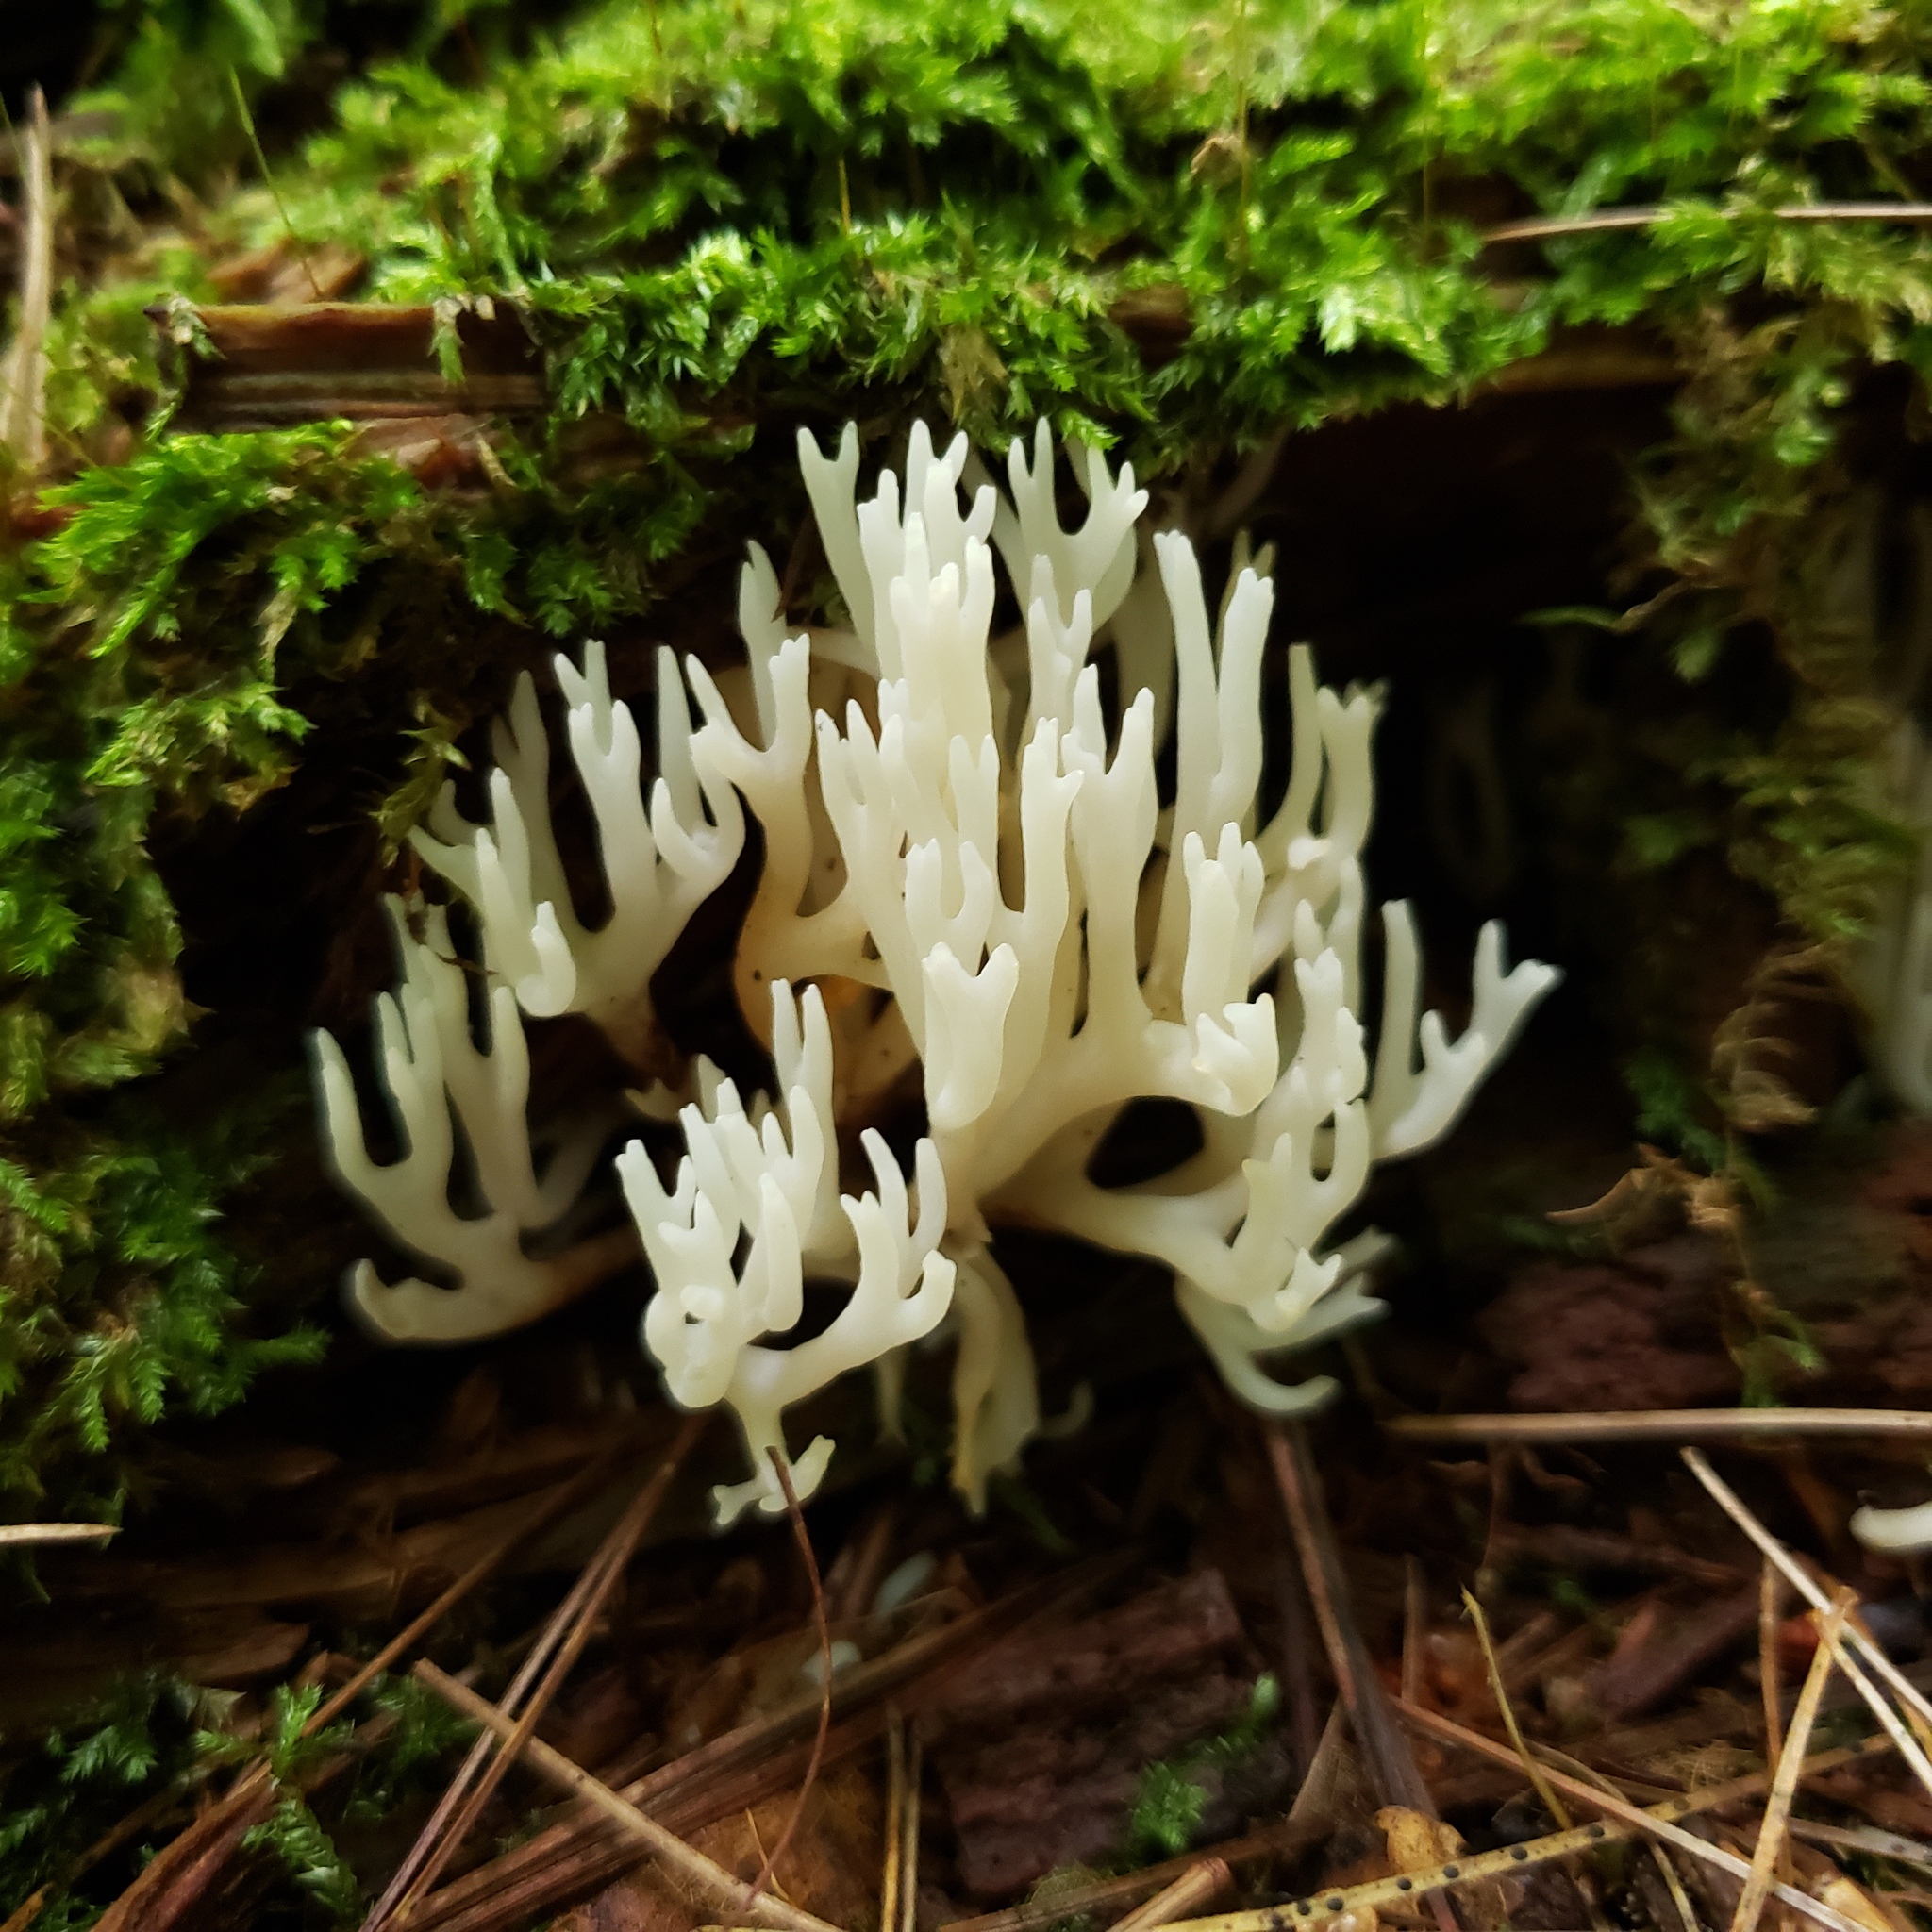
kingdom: Fungi
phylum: Basidiomycota
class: Agaricomycetes
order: Agaricales
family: Clavariaceae
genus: Ramariopsis
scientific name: Ramariopsis kunzei
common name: Ivory coral
